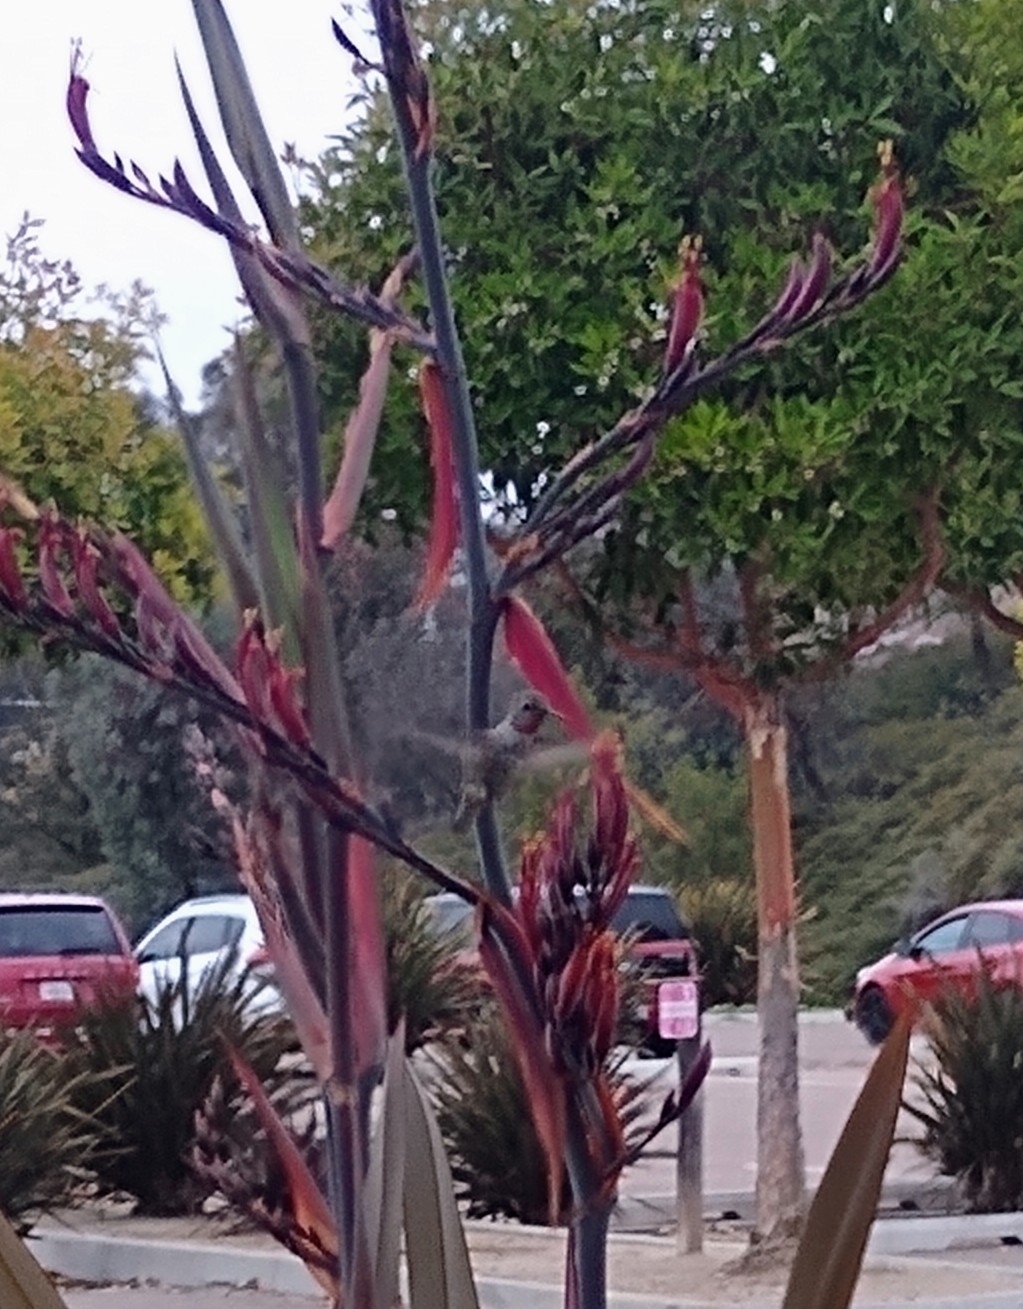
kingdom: Animalia
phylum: Chordata
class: Aves
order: Apodiformes
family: Trochilidae
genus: Calypte
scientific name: Calypte anna
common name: Anna's hummingbird
